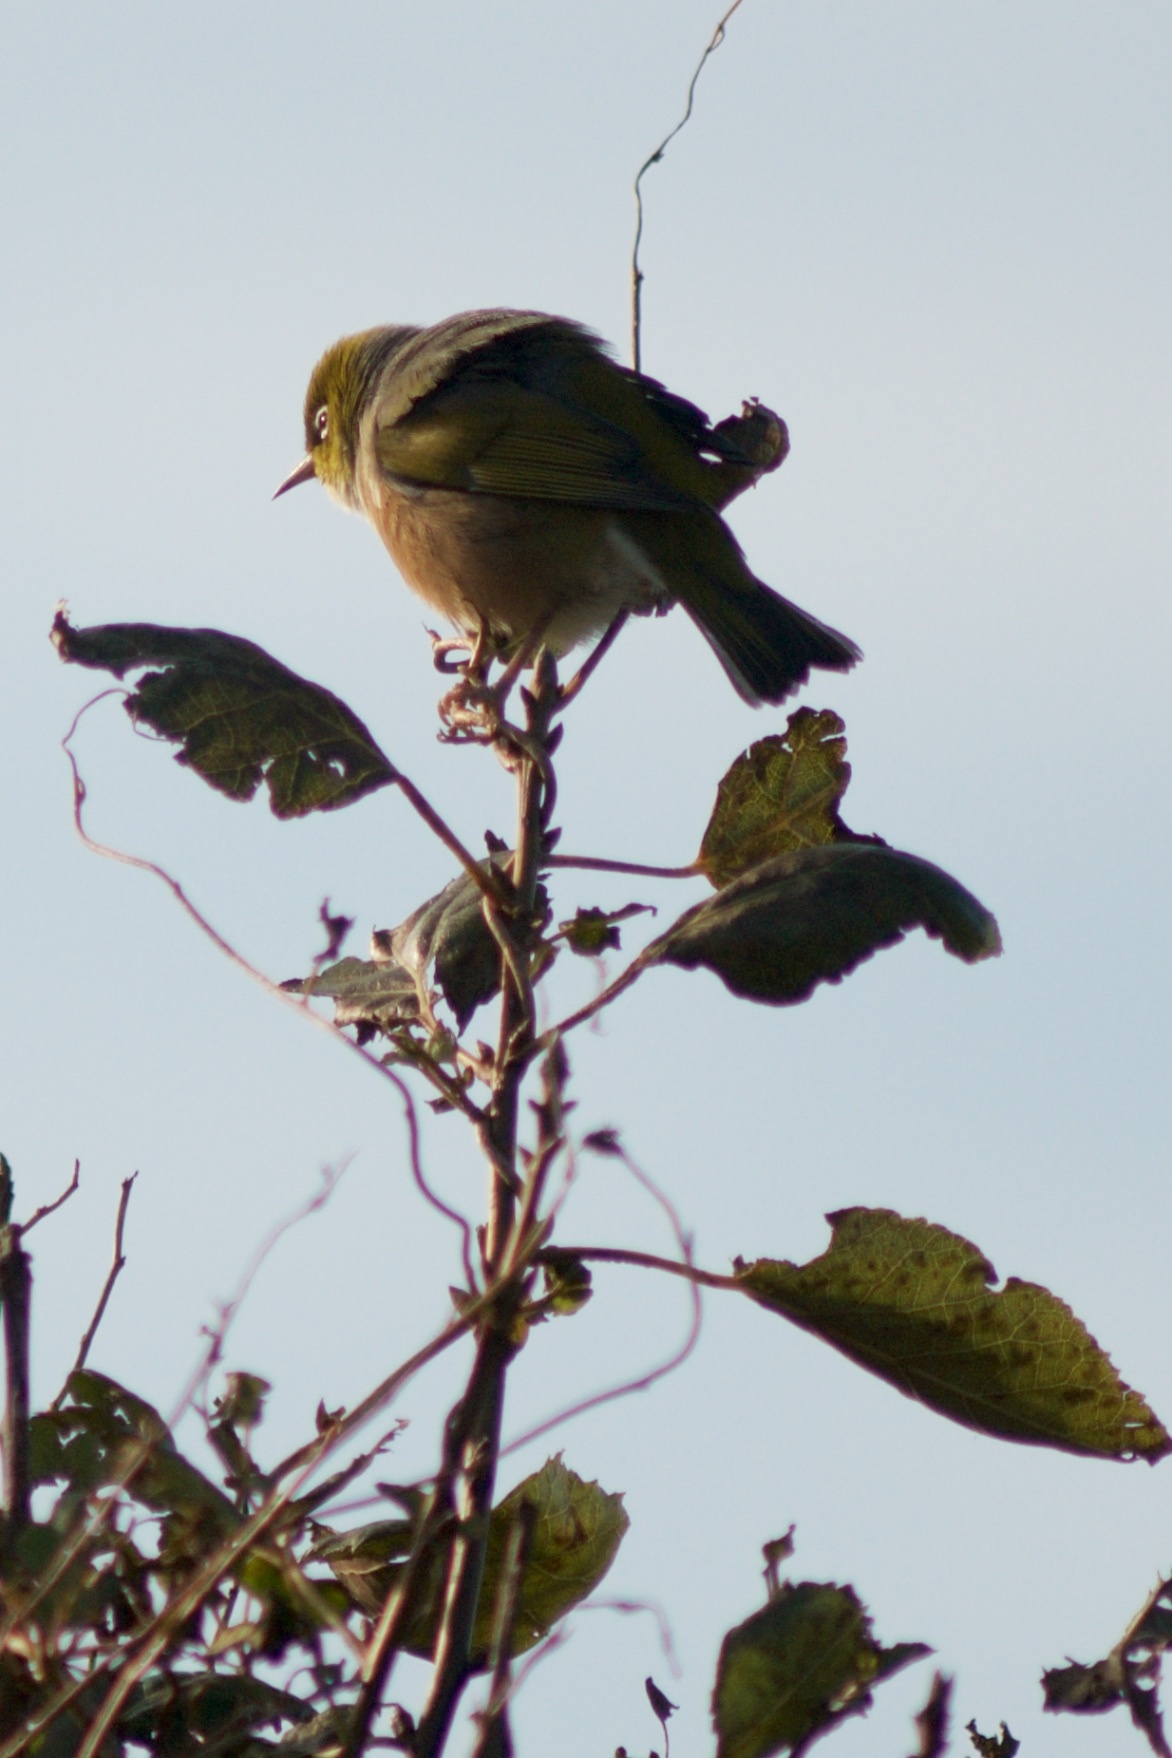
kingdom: Animalia
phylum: Chordata
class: Aves
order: Passeriformes
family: Zosteropidae
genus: Zosterops
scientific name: Zosterops lateralis
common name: Silvereye
